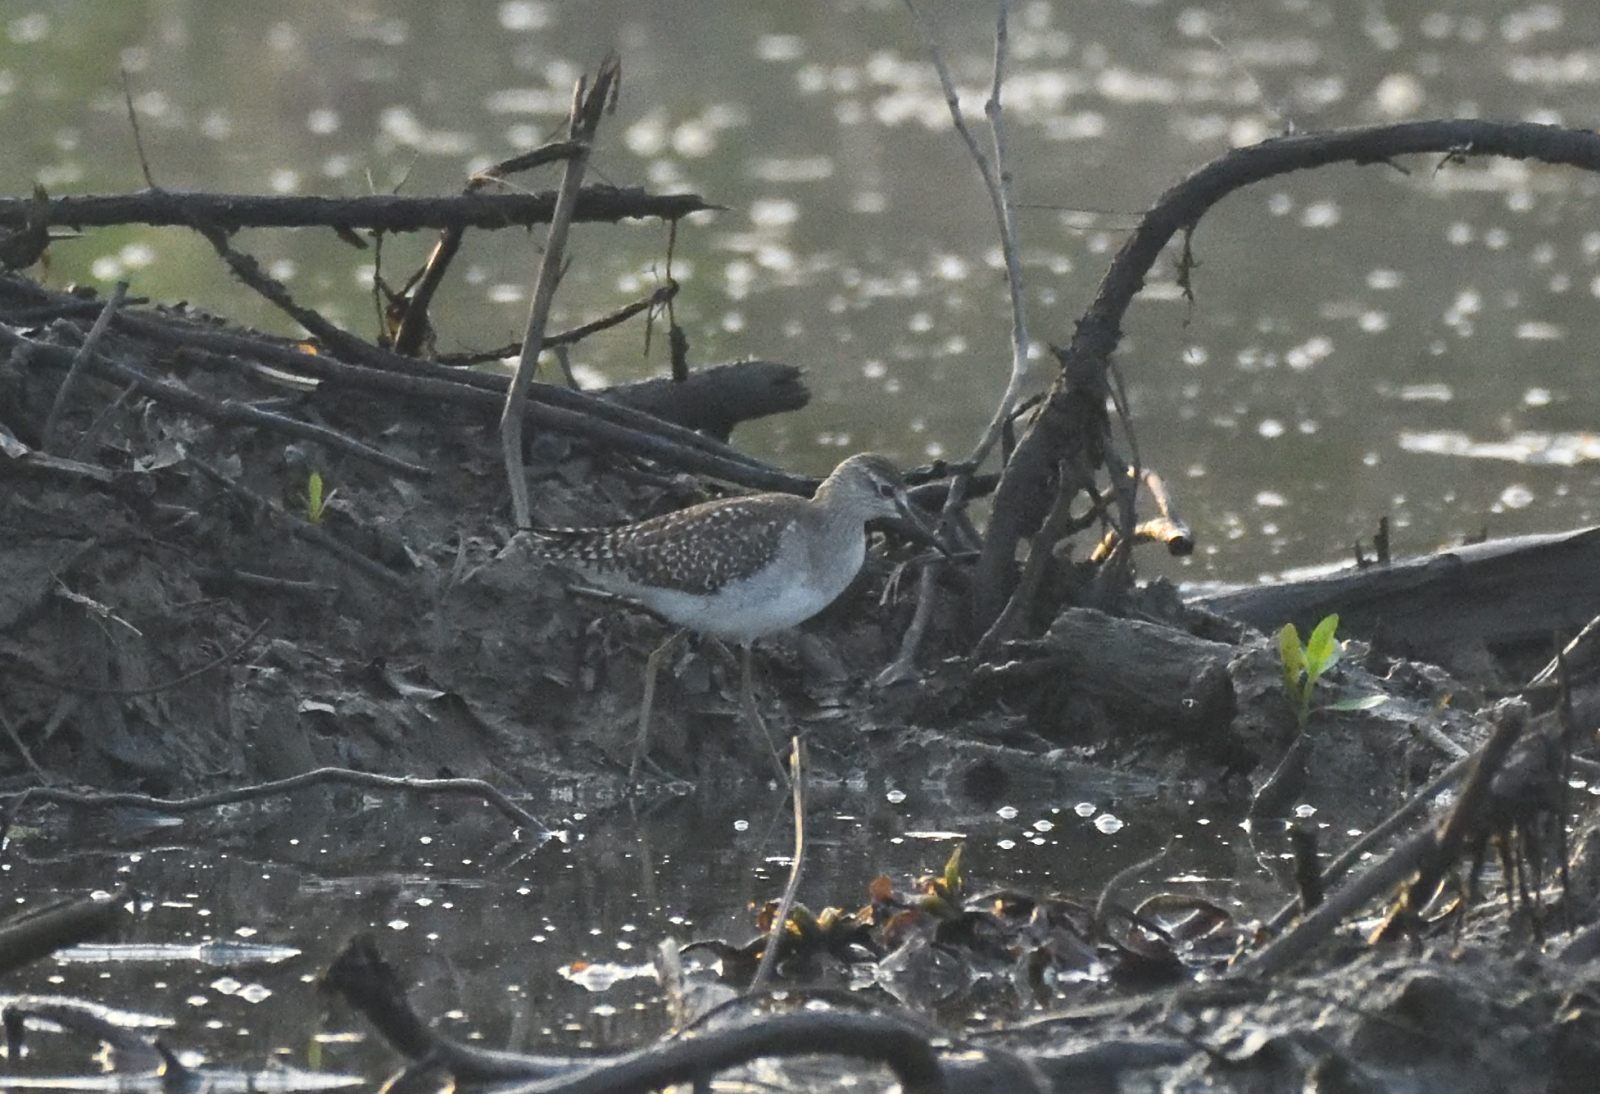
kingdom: Animalia
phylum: Chordata
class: Aves
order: Charadriiformes
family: Scolopacidae
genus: Tringa
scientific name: Tringa glareola
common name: Wood sandpiper
